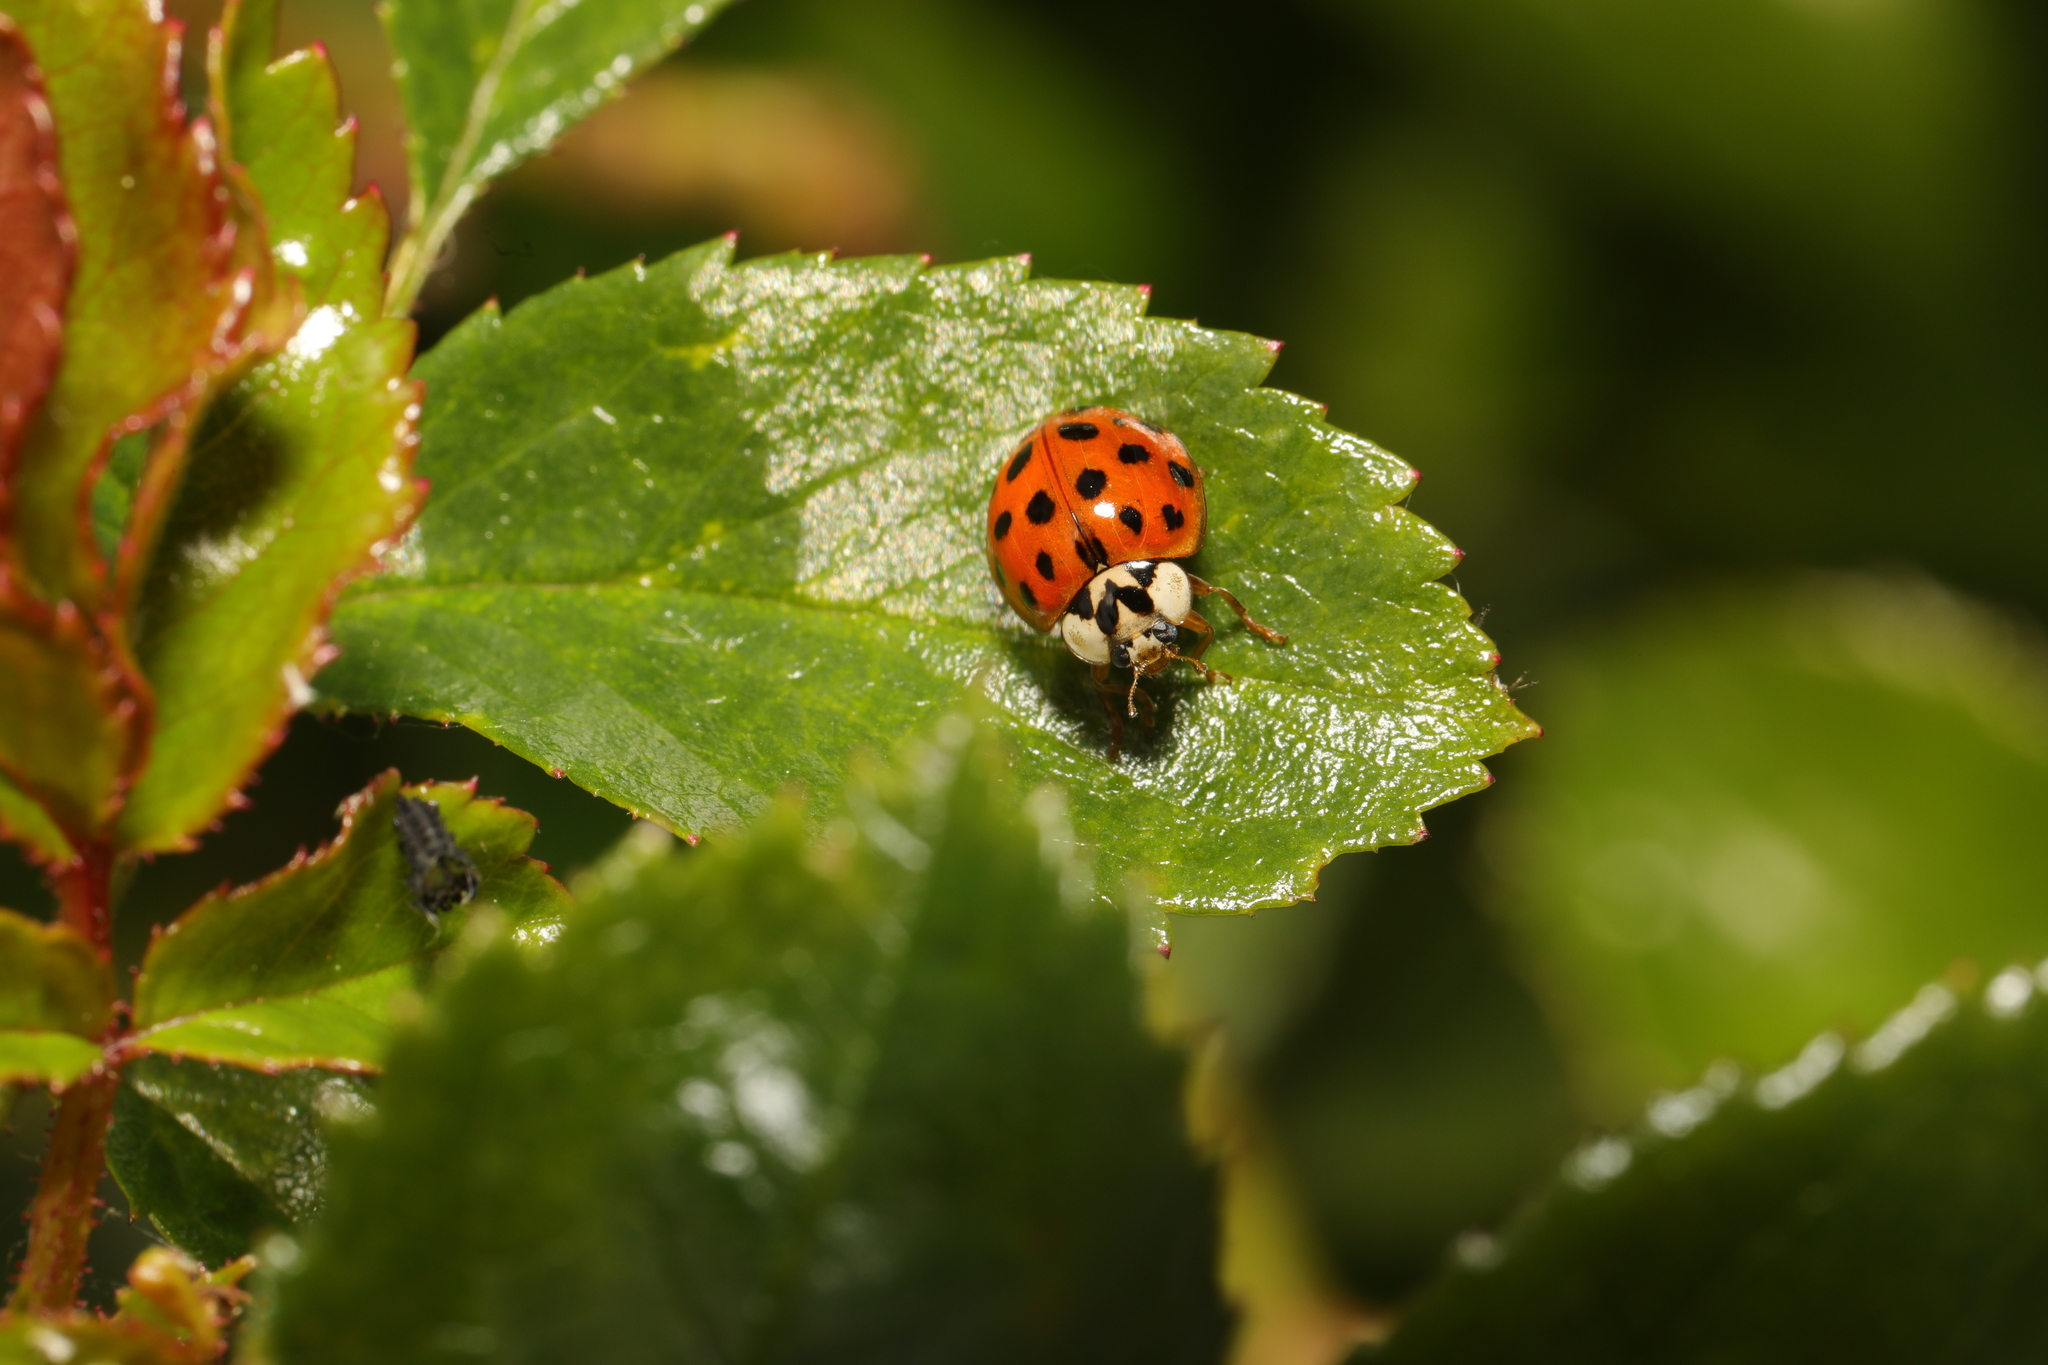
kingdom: Animalia
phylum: Arthropoda
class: Insecta
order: Coleoptera
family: Coccinellidae
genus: Harmonia
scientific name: Harmonia axyridis
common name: Harlequin ladybird
